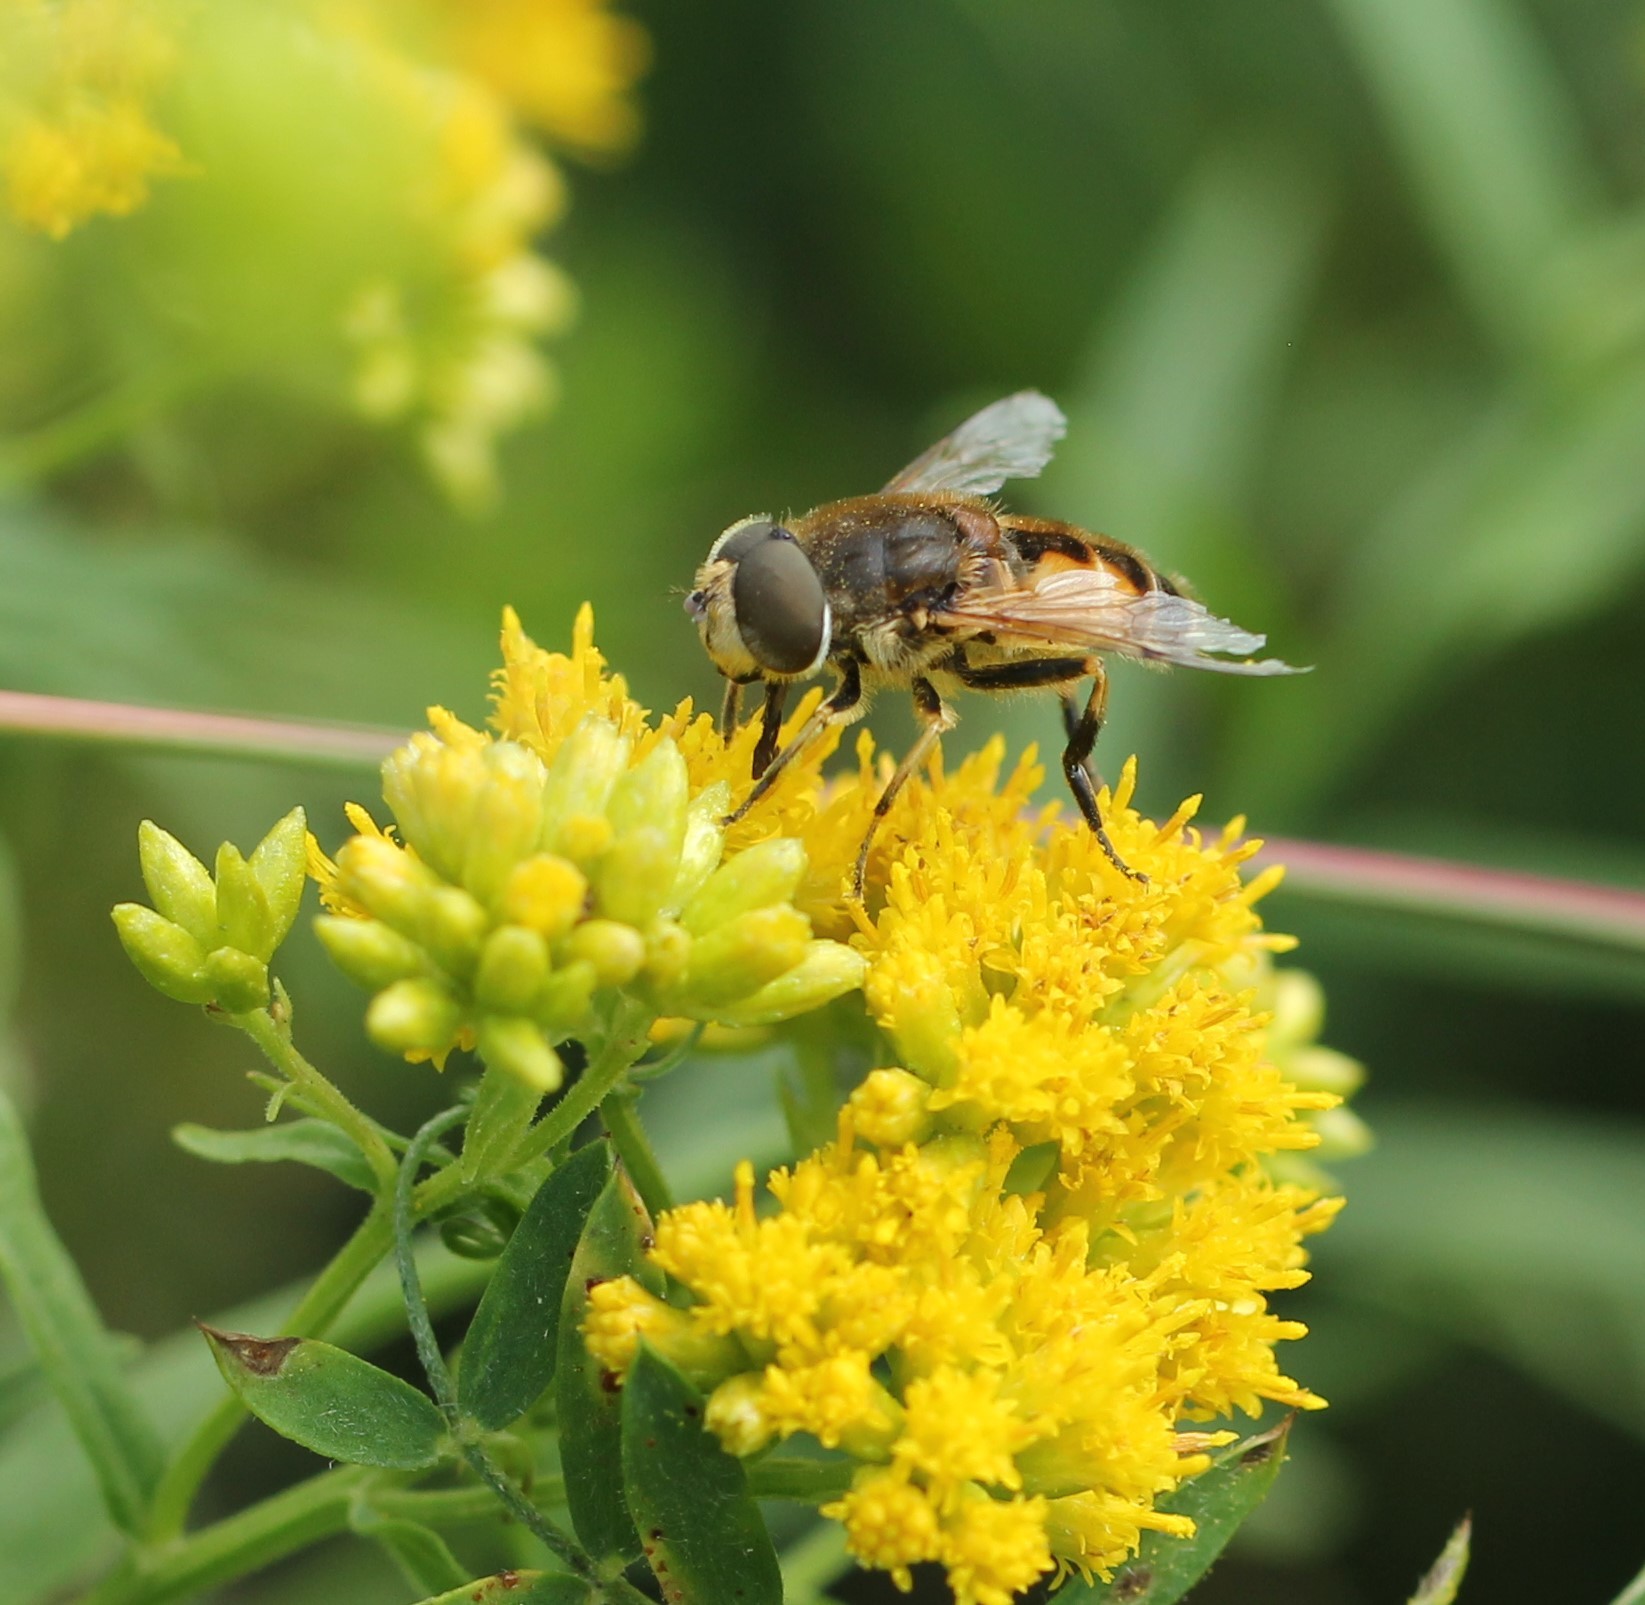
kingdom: Animalia
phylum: Arthropoda
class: Insecta
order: Diptera
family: Syrphidae
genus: Eristalis
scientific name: Eristalis arbustorum
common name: Hover fly
